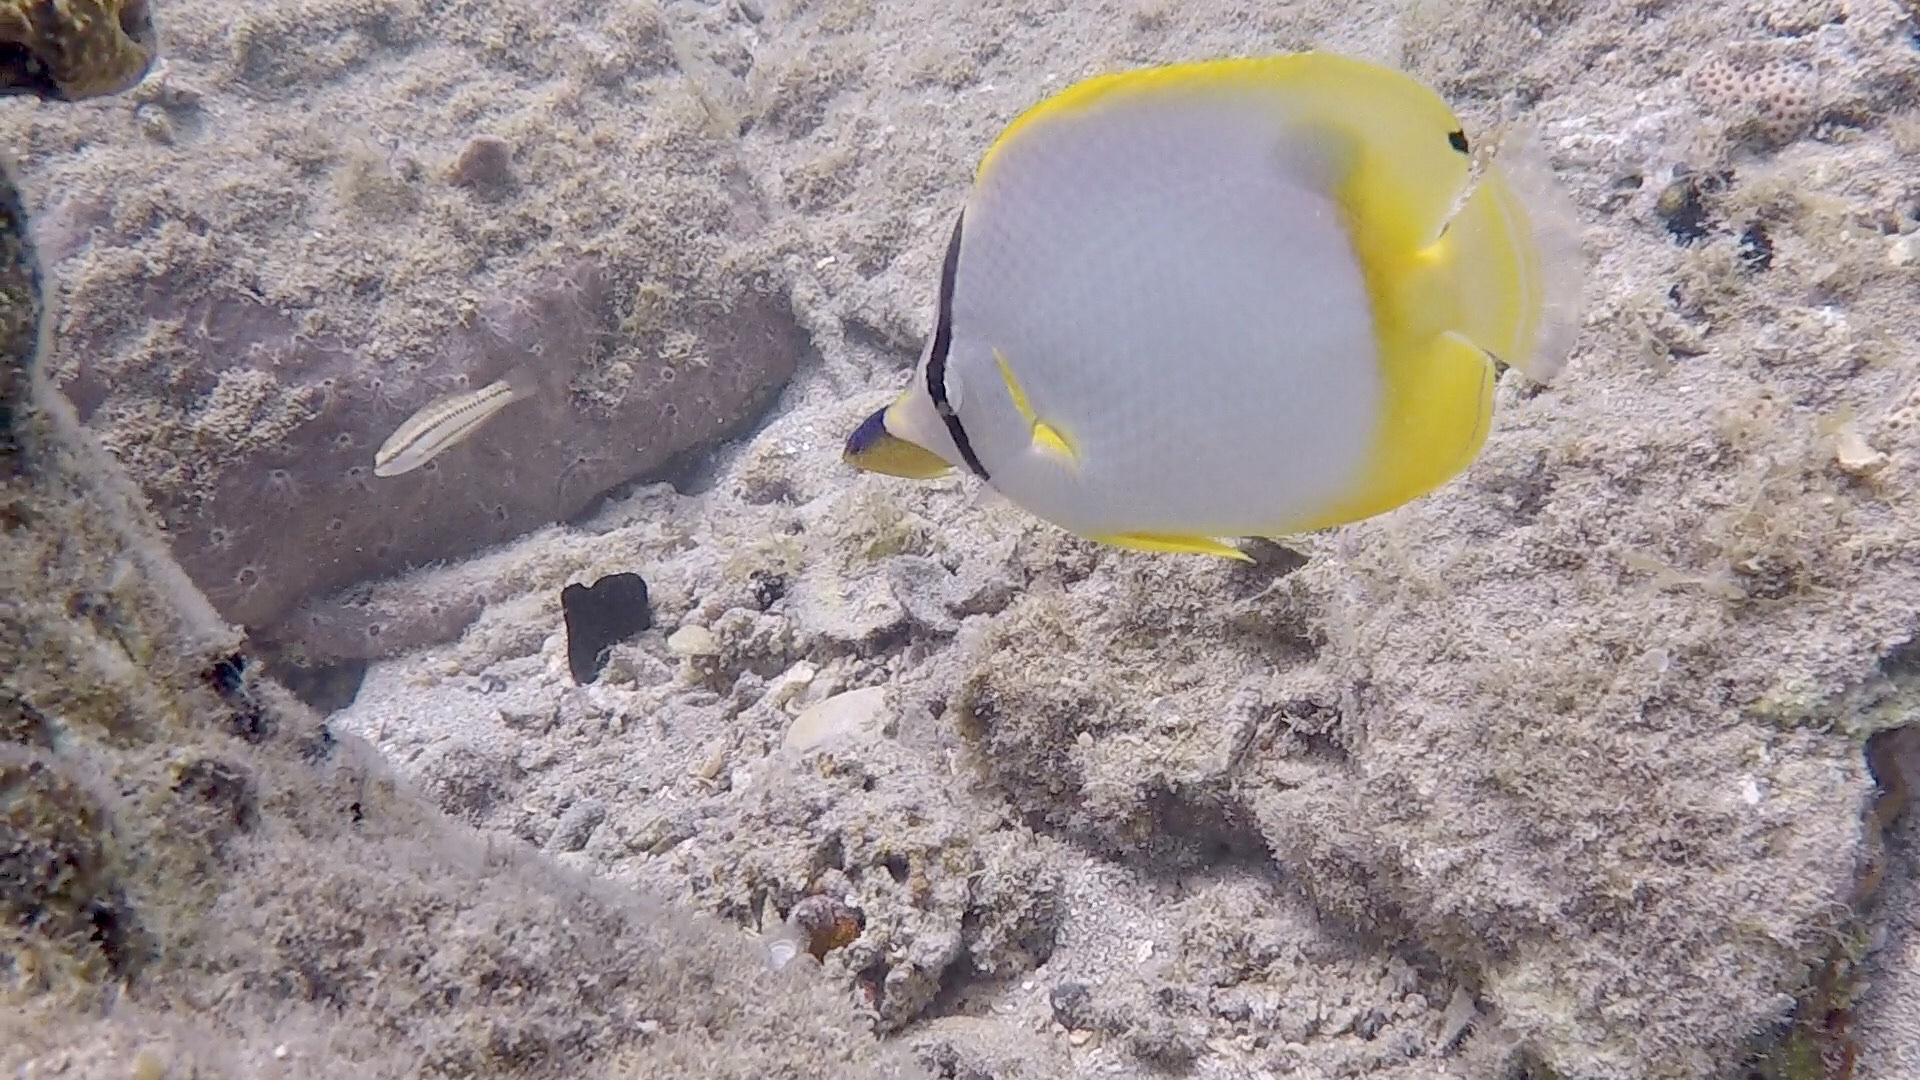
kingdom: Animalia
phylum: Chordata
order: Perciformes
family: Chaetodontidae
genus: Chaetodon
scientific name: Chaetodon ocellatus
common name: Spotfin butterflyfish
